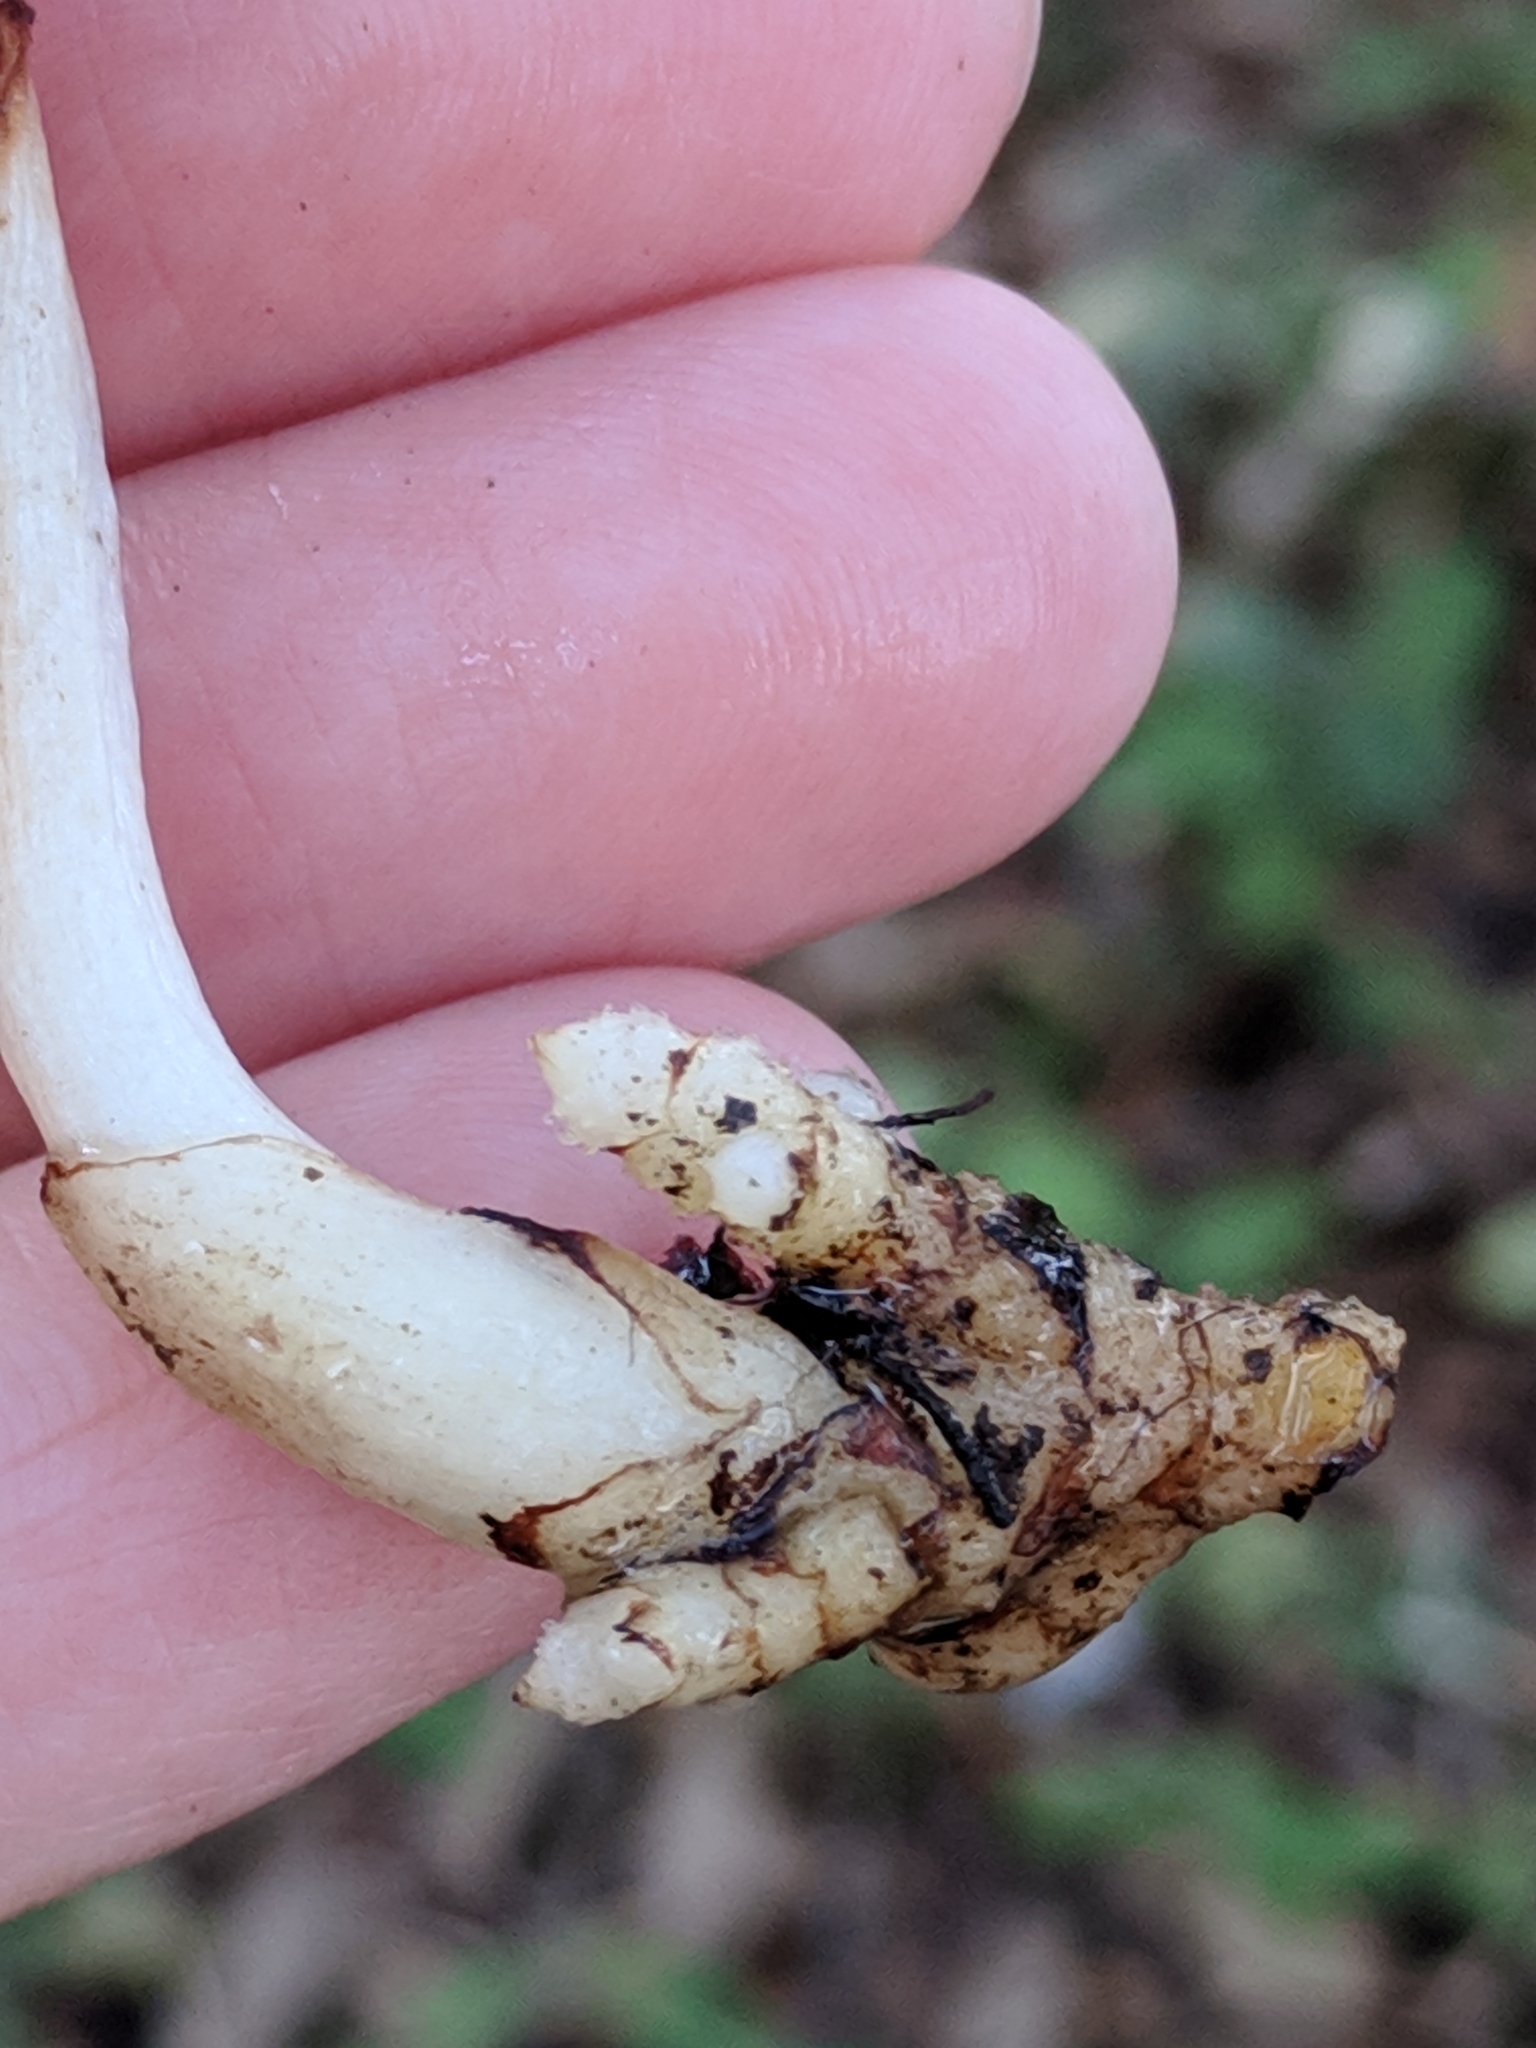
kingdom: Plantae
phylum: Tracheophyta
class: Liliopsida
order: Asparagales
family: Orchidaceae
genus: Corallorhiza
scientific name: Corallorhiza wisteriana
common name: Spring coralroot
